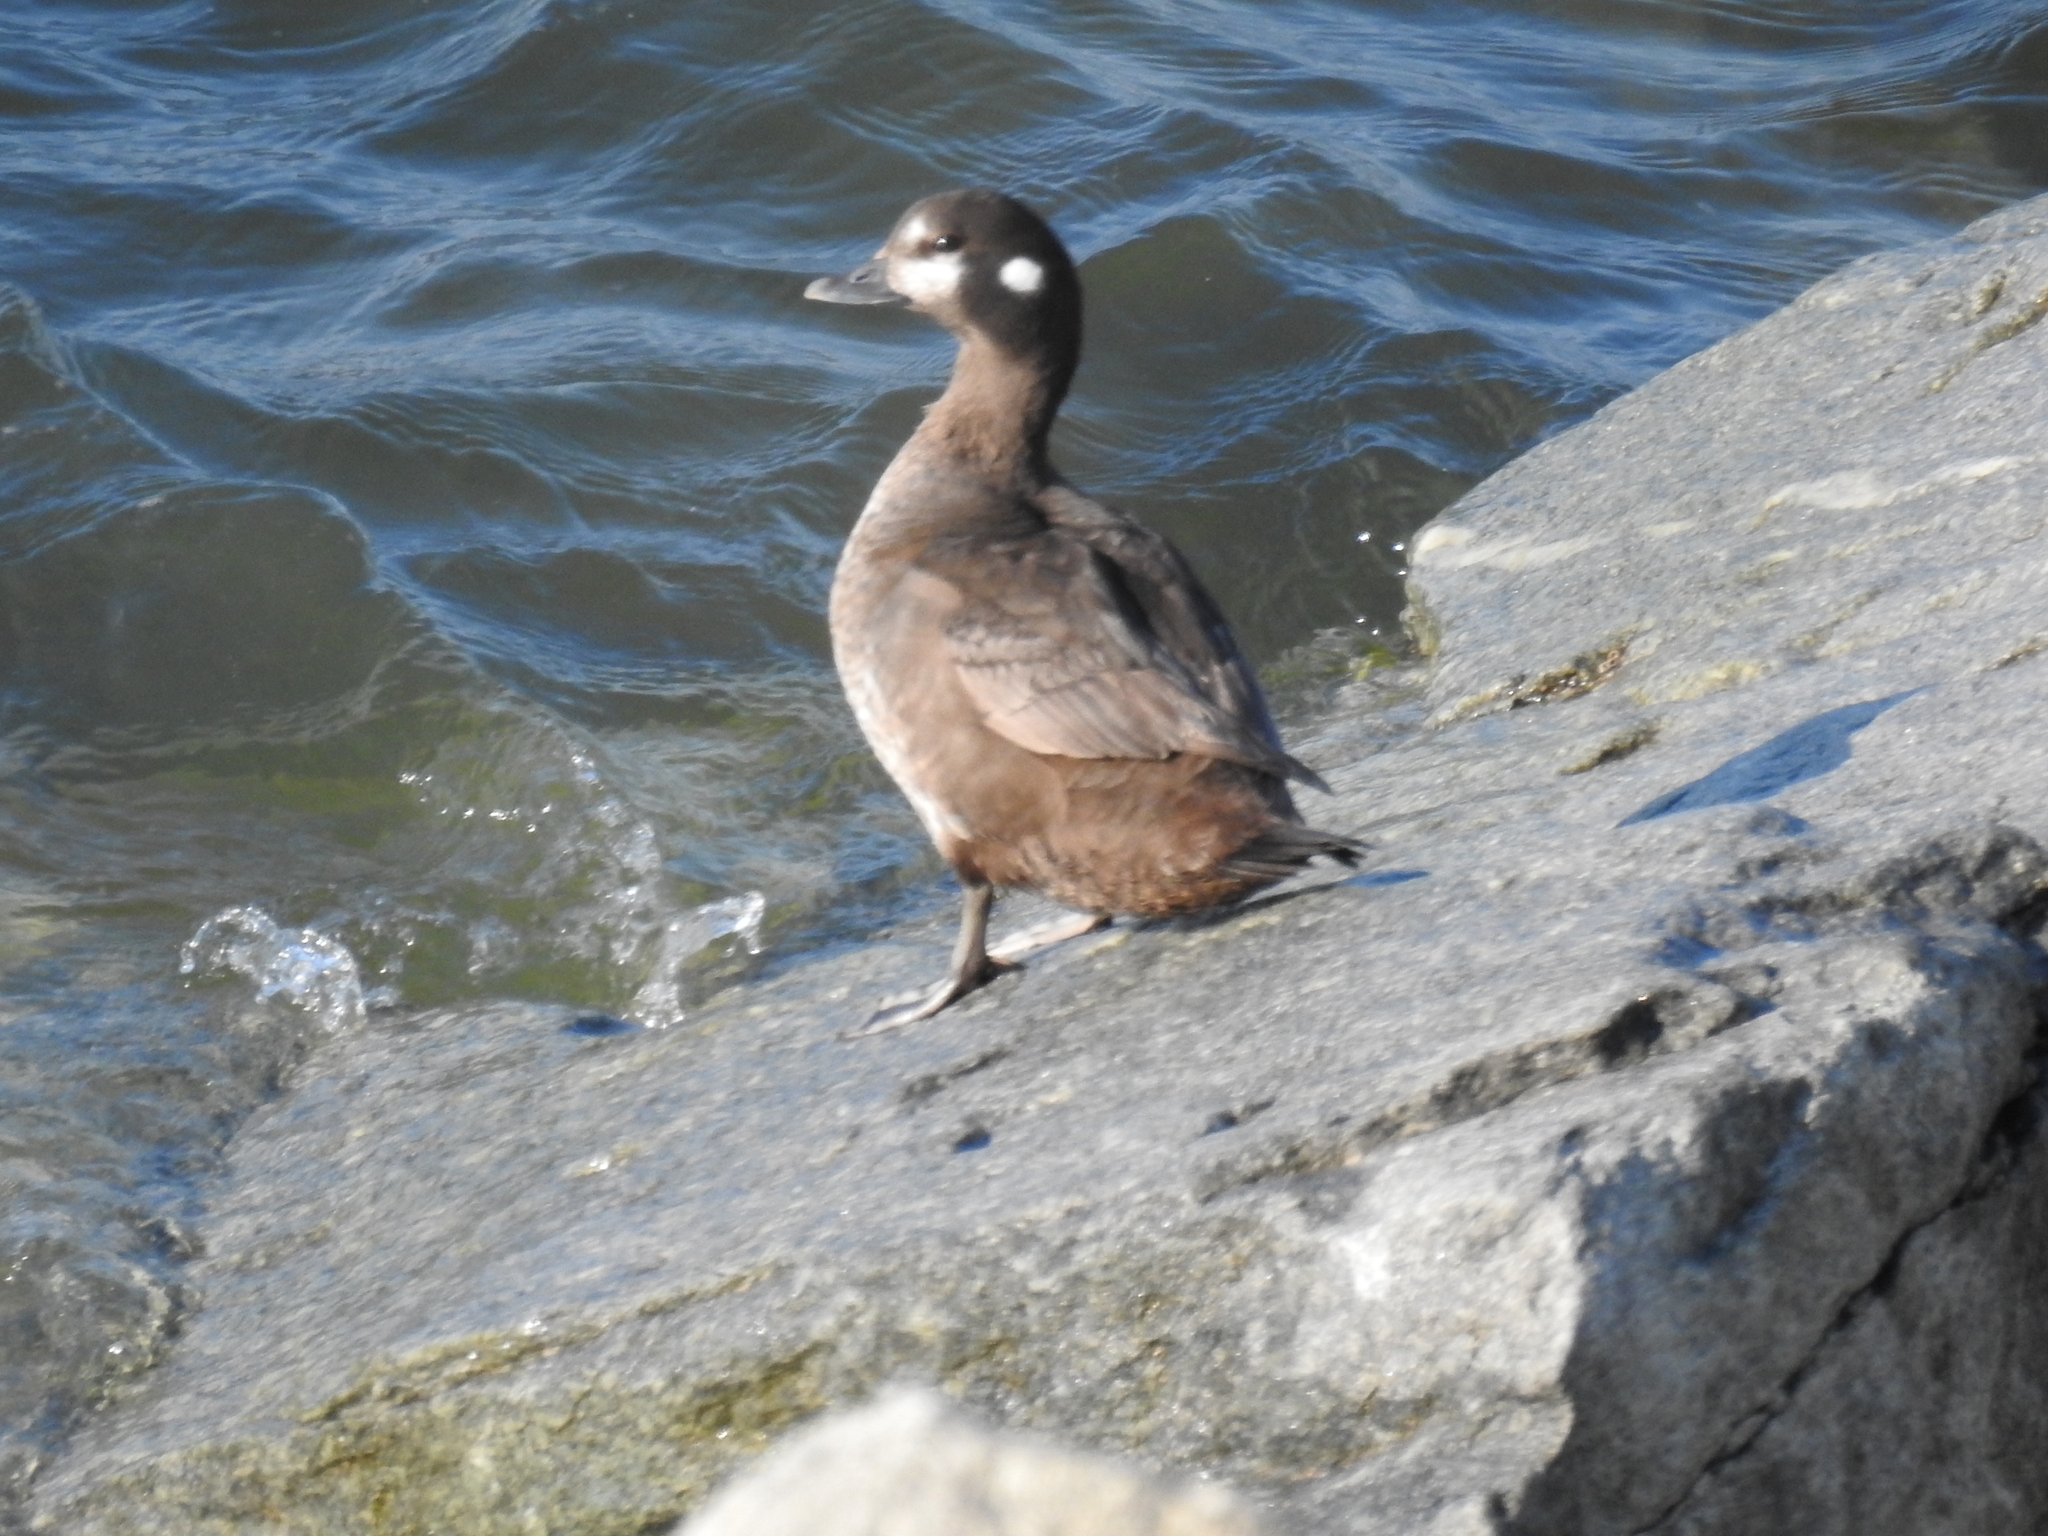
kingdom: Animalia
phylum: Chordata
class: Aves
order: Anseriformes
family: Anatidae
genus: Histrionicus
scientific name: Histrionicus histrionicus
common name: Harlequin duck
